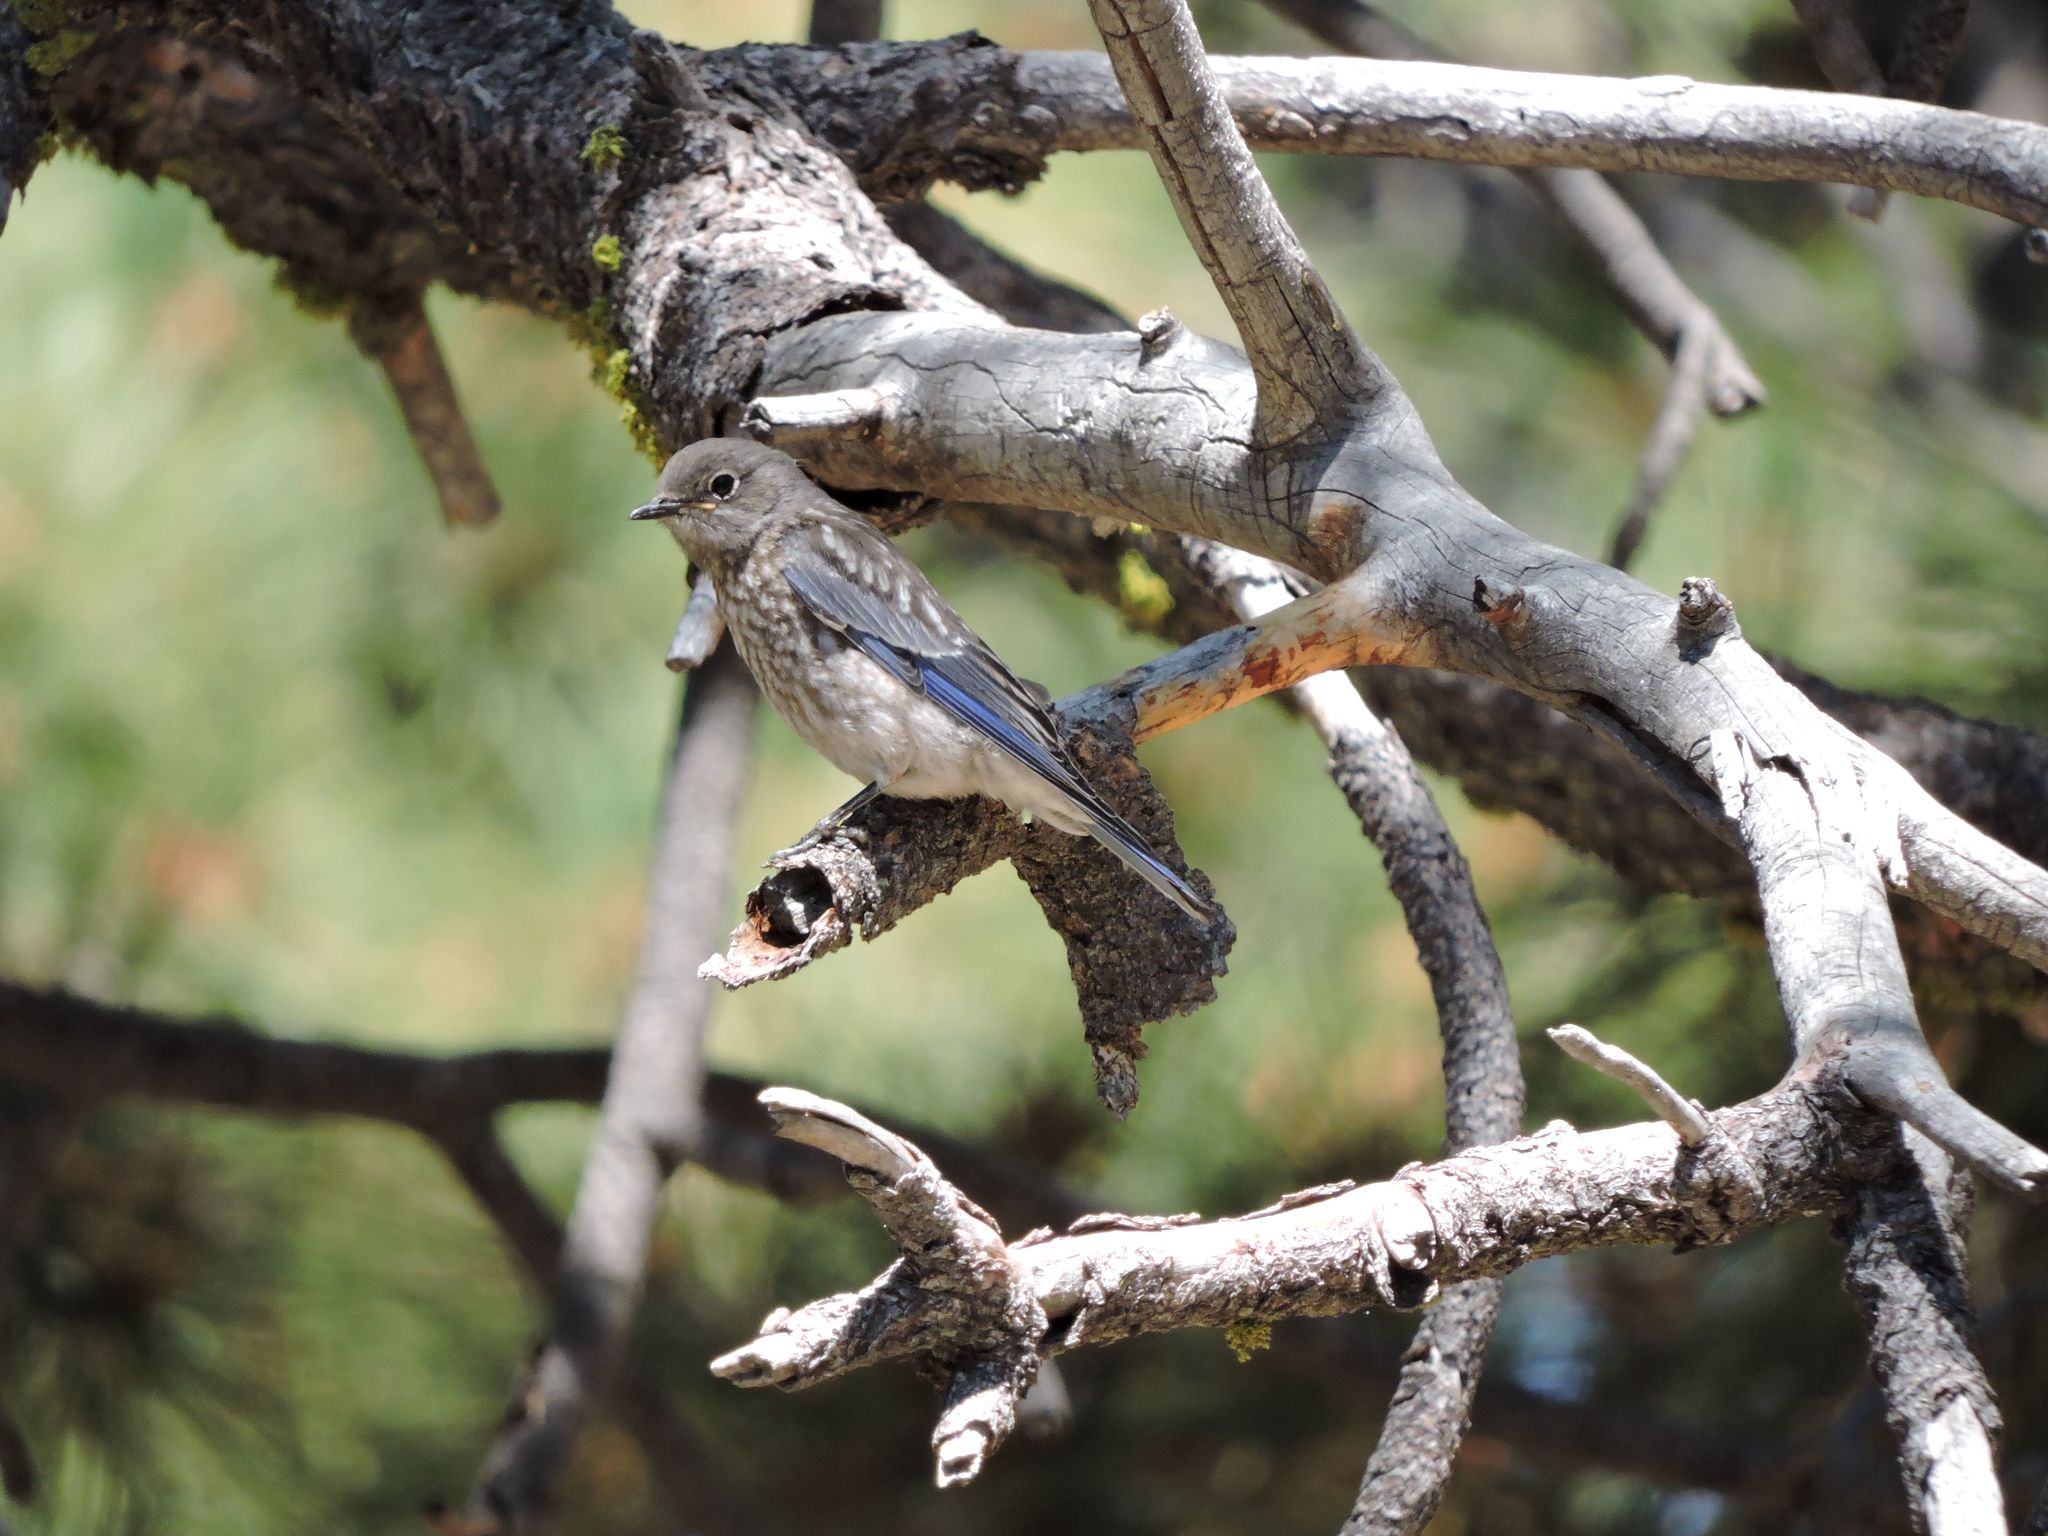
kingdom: Animalia
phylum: Chordata
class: Aves
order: Passeriformes
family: Turdidae
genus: Sialia
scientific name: Sialia mexicana
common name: Western bluebird
